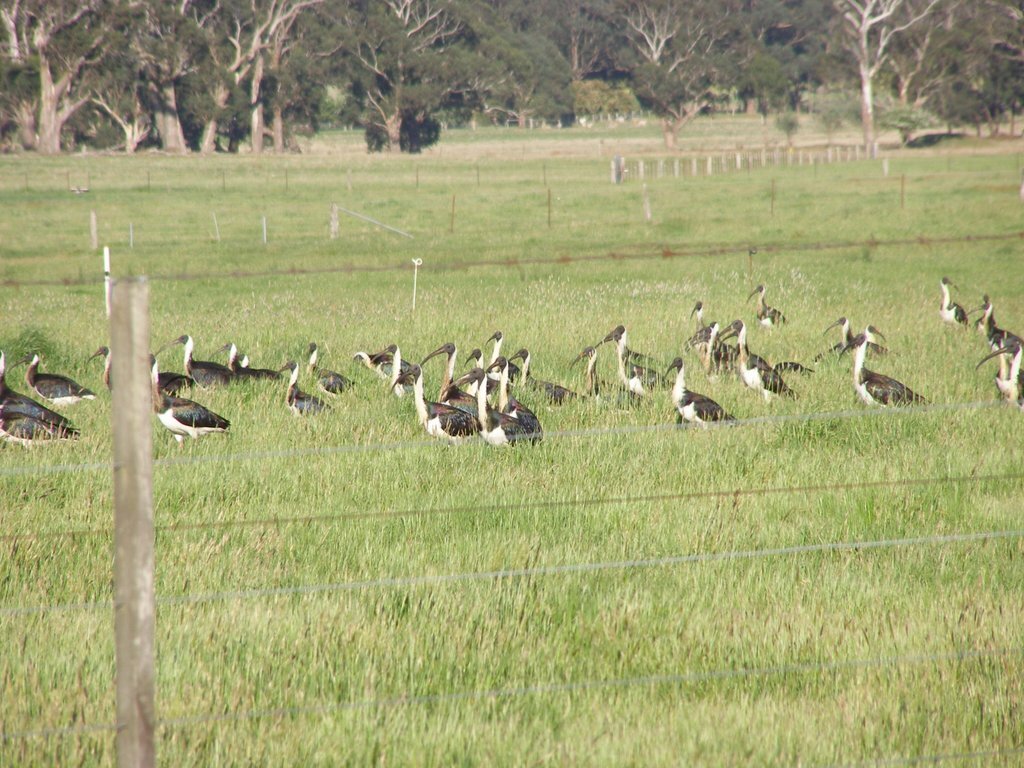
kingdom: Animalia
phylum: Chordata
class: Aves
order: Pelecaniformes
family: Threskiornithidae
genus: Threskiornis
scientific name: Threskiornis spinicollis
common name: Straw-necked ibis
